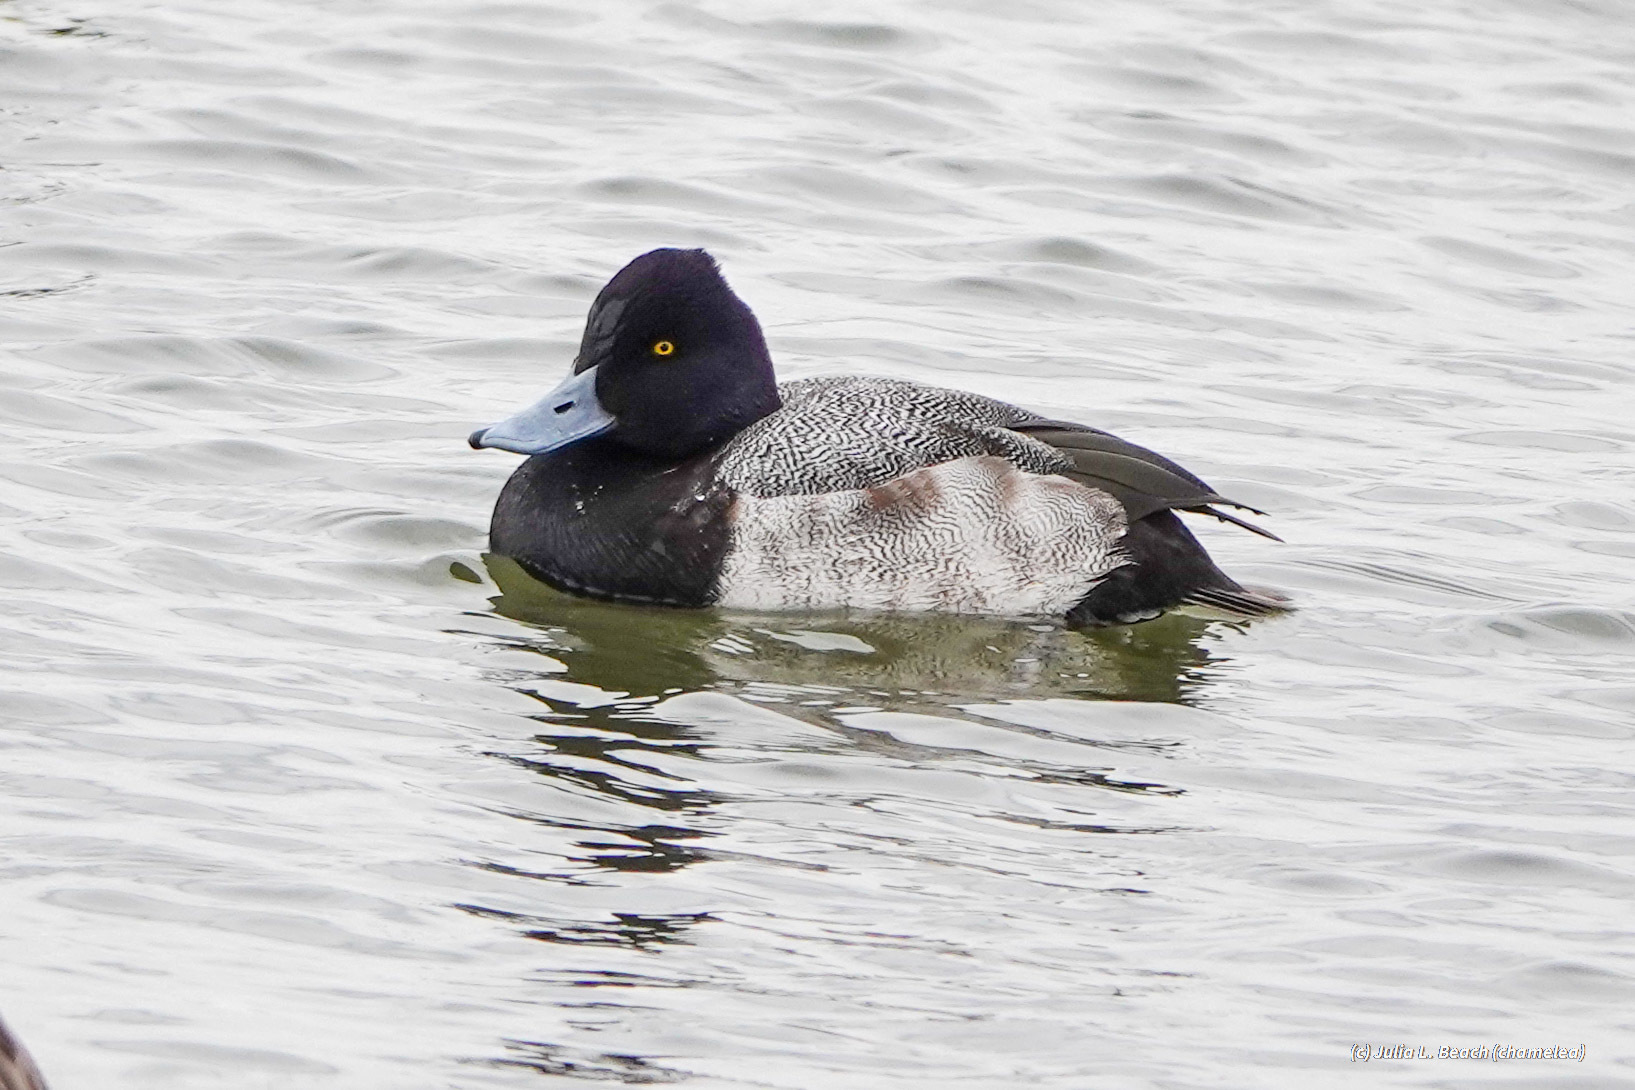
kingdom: Animalia
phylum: Chordata
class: Aves
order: Anseriformes
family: Anatidae
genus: Aythya
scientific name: Aythya affinis
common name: Lesser scaup
